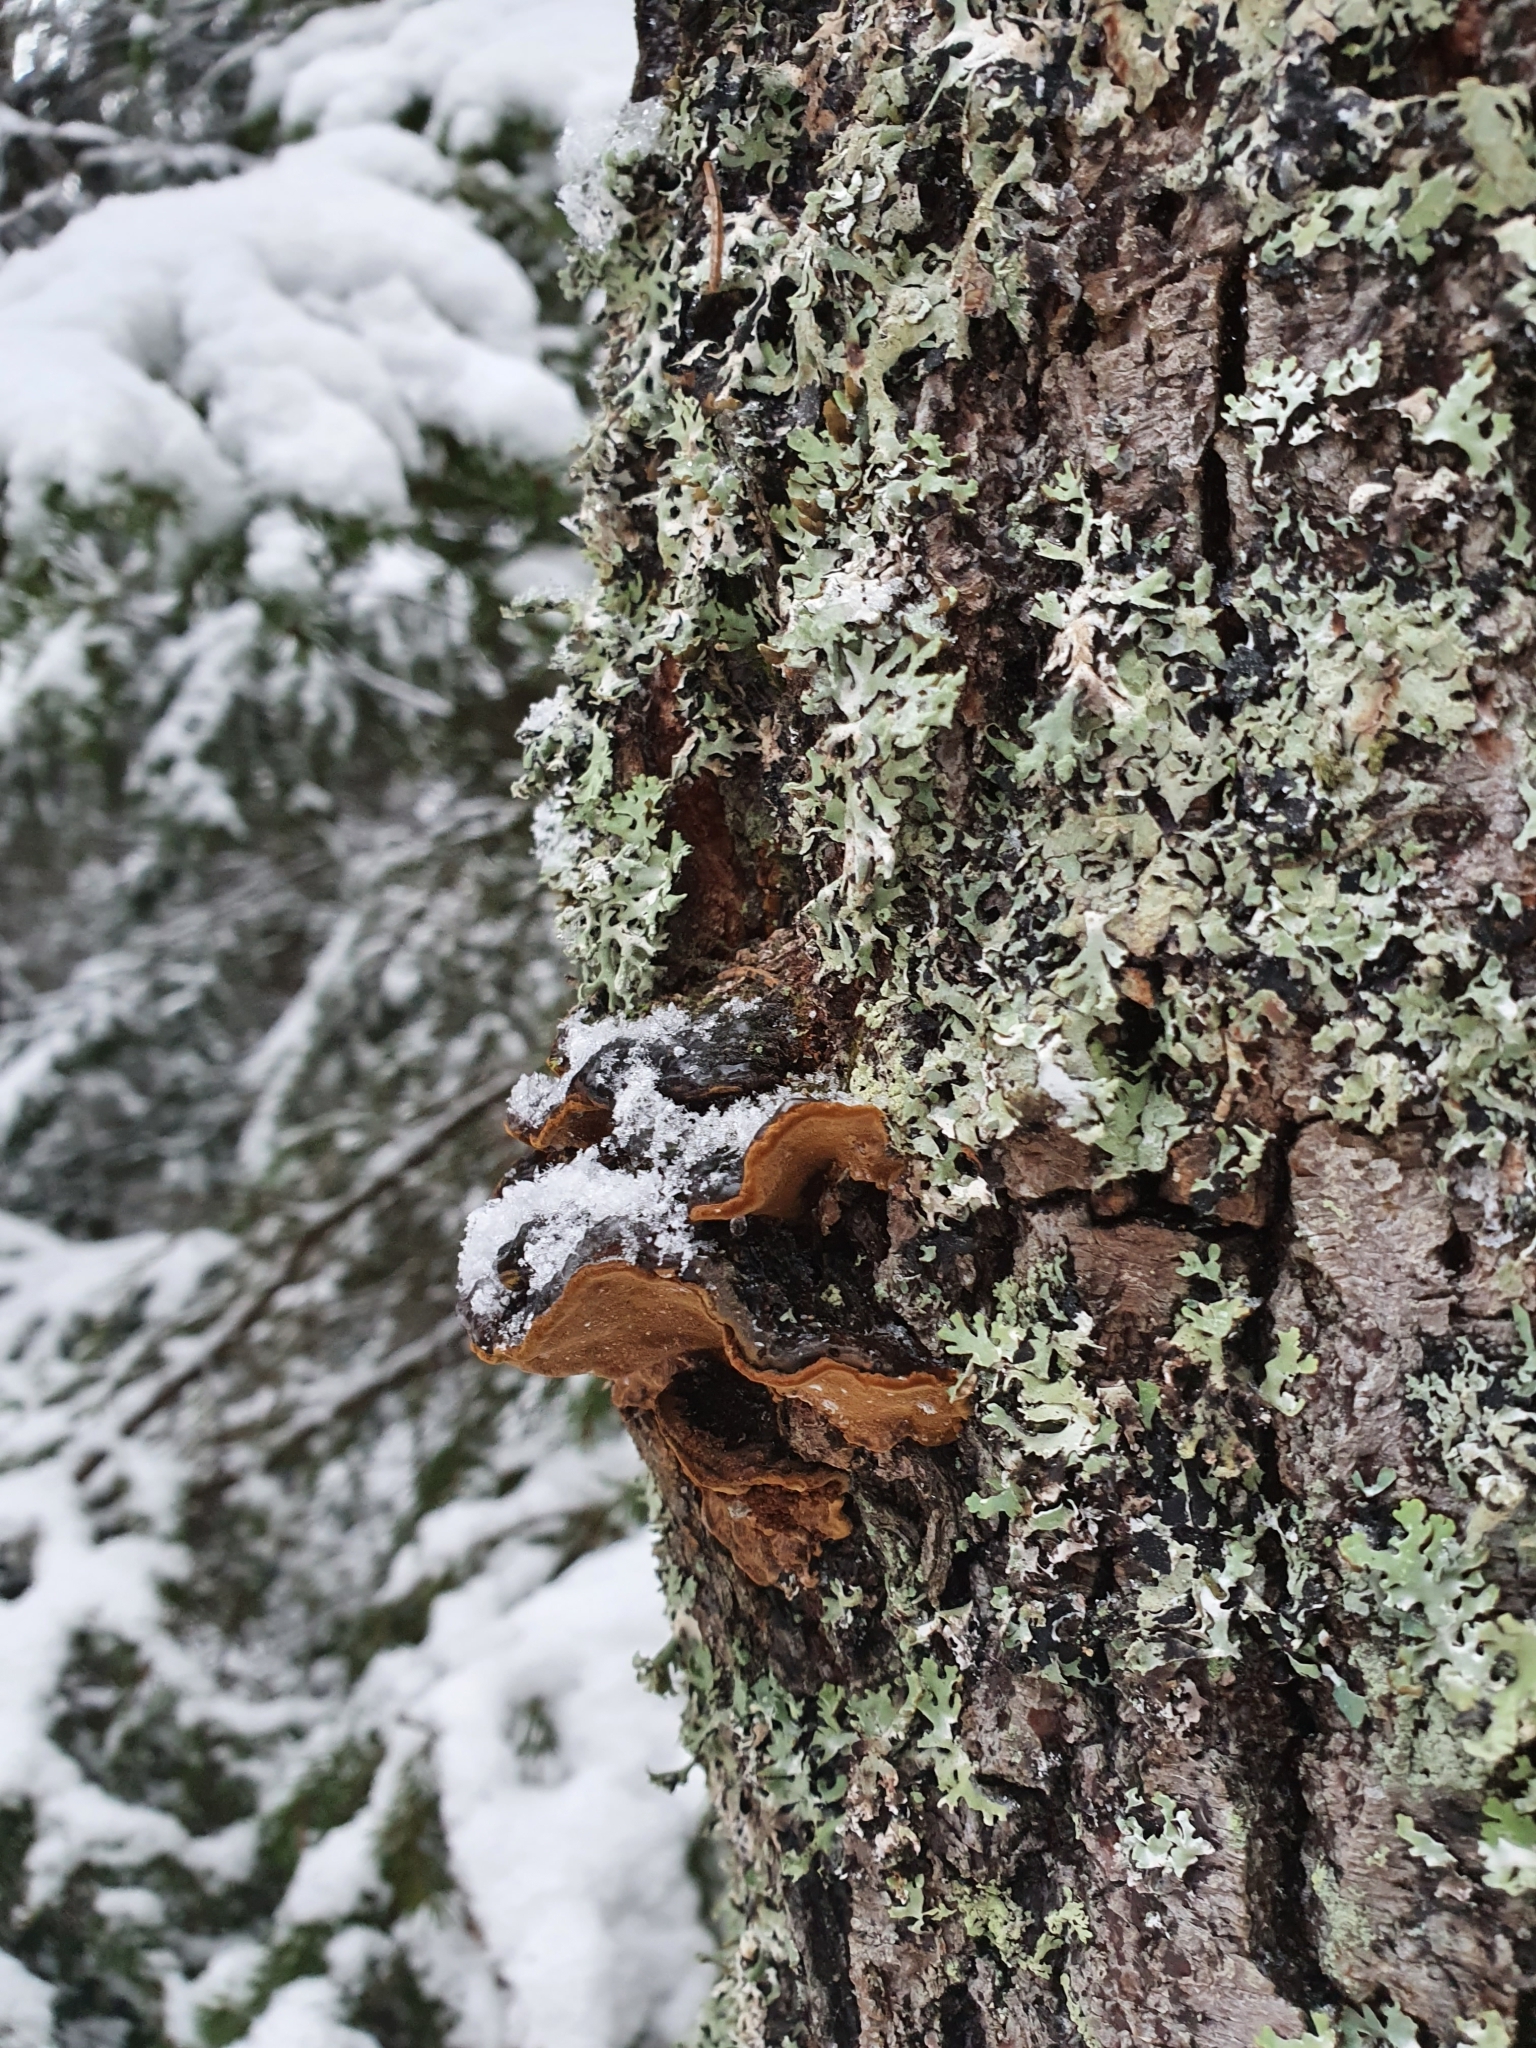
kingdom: Fungi
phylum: Basidiomycota
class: Agaricomycetes
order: Hymenochaetales
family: Hymenochaetaceae
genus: Phellinopsis
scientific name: Phellinopsis conchata
